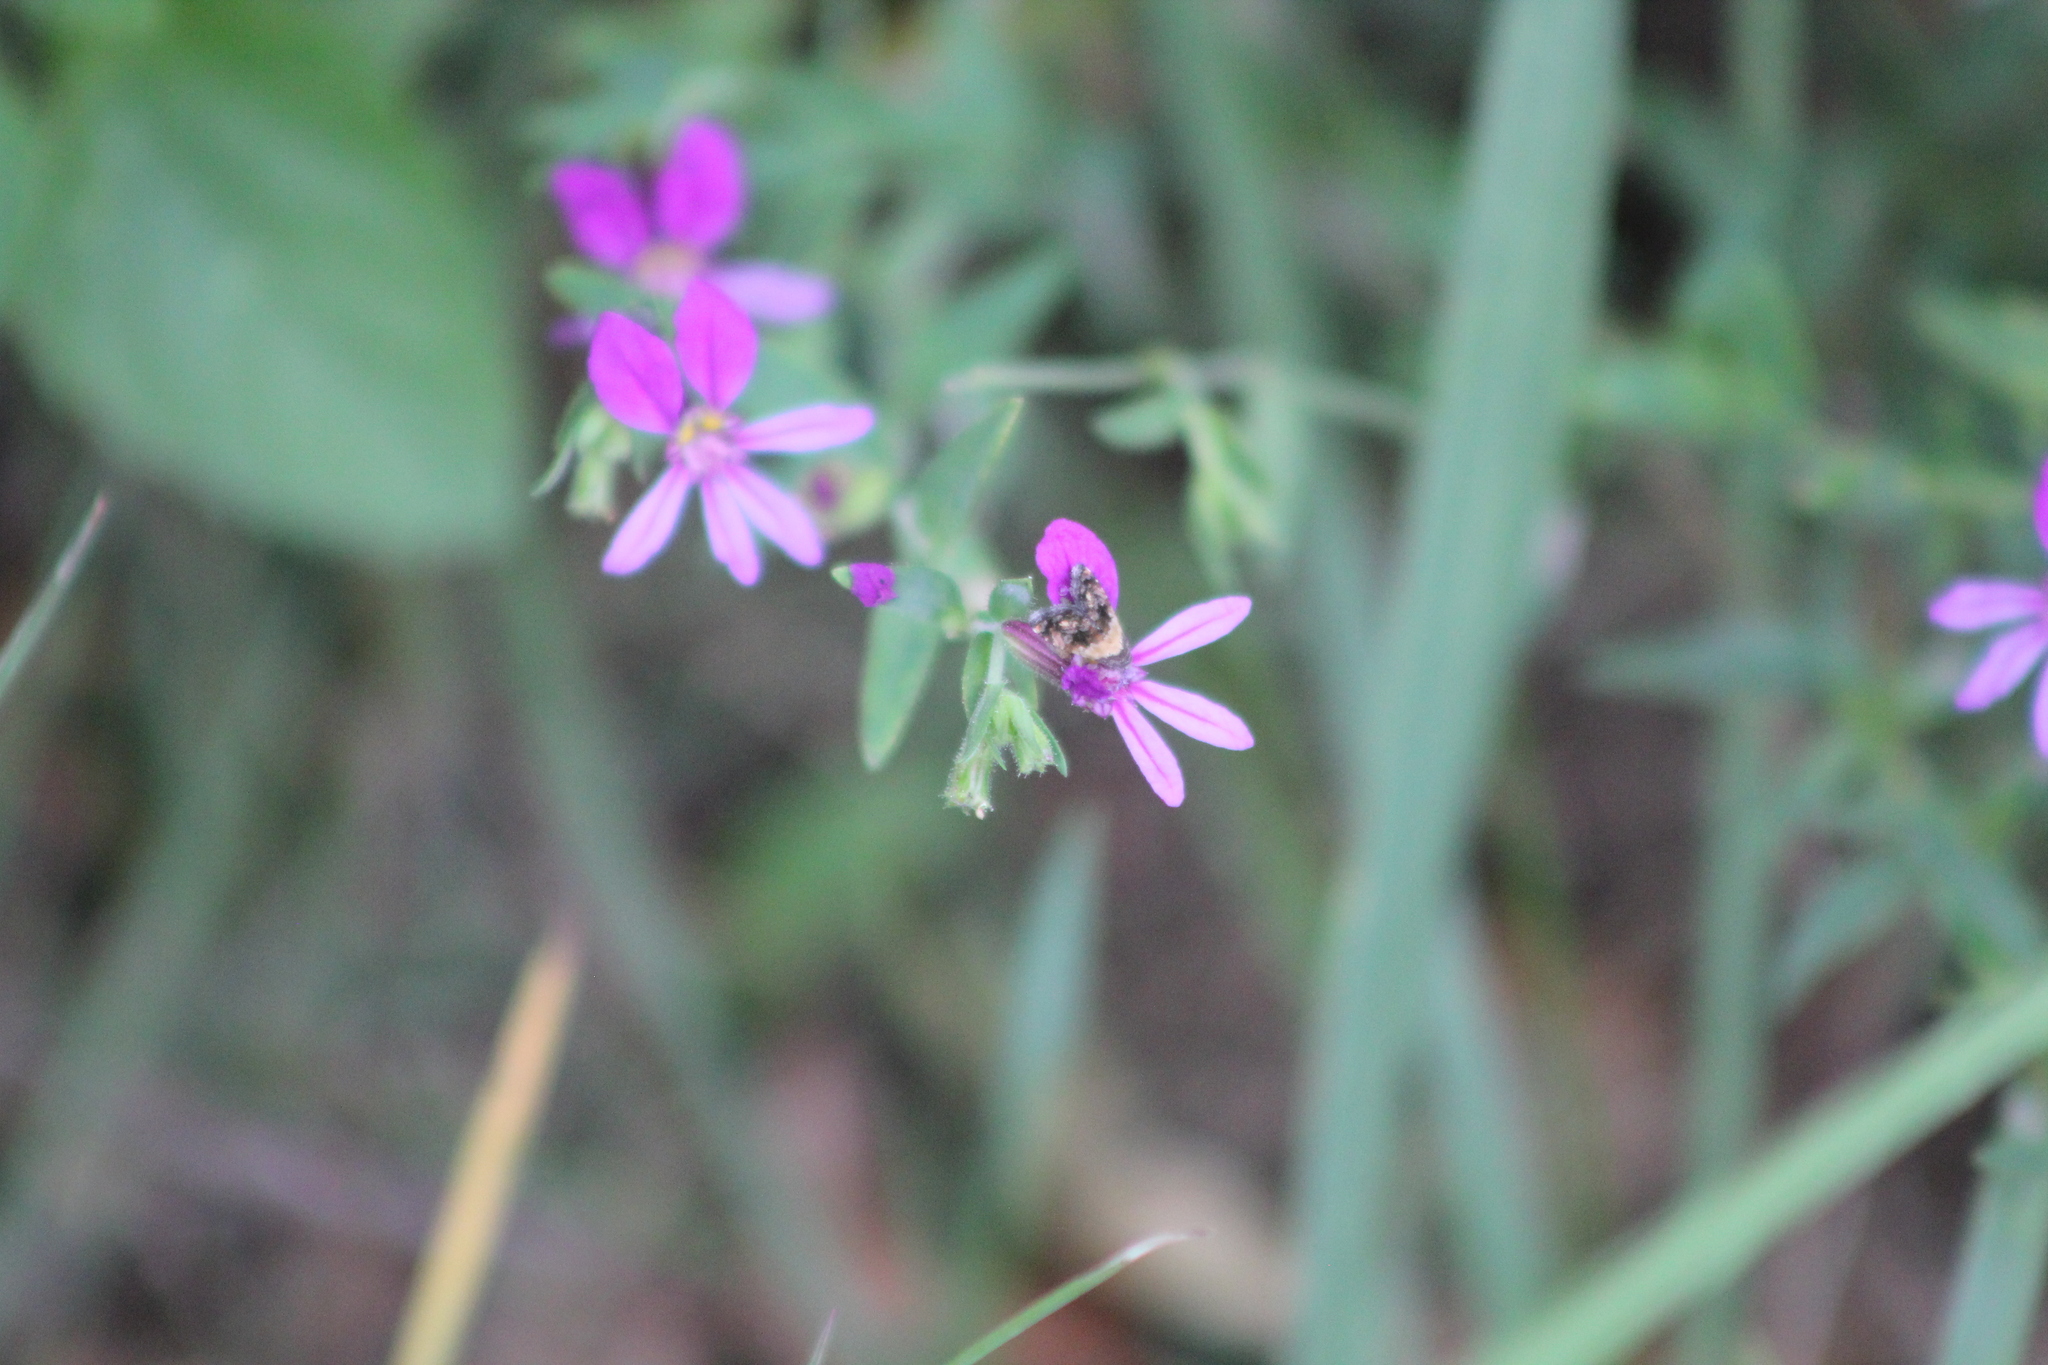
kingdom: Plantae
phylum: Tracheophyta
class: Magnoliopsida
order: Myrtales
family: Lythraceae
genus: Cuphea
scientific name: Cuphea glutinosa
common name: Sticky waxweed
